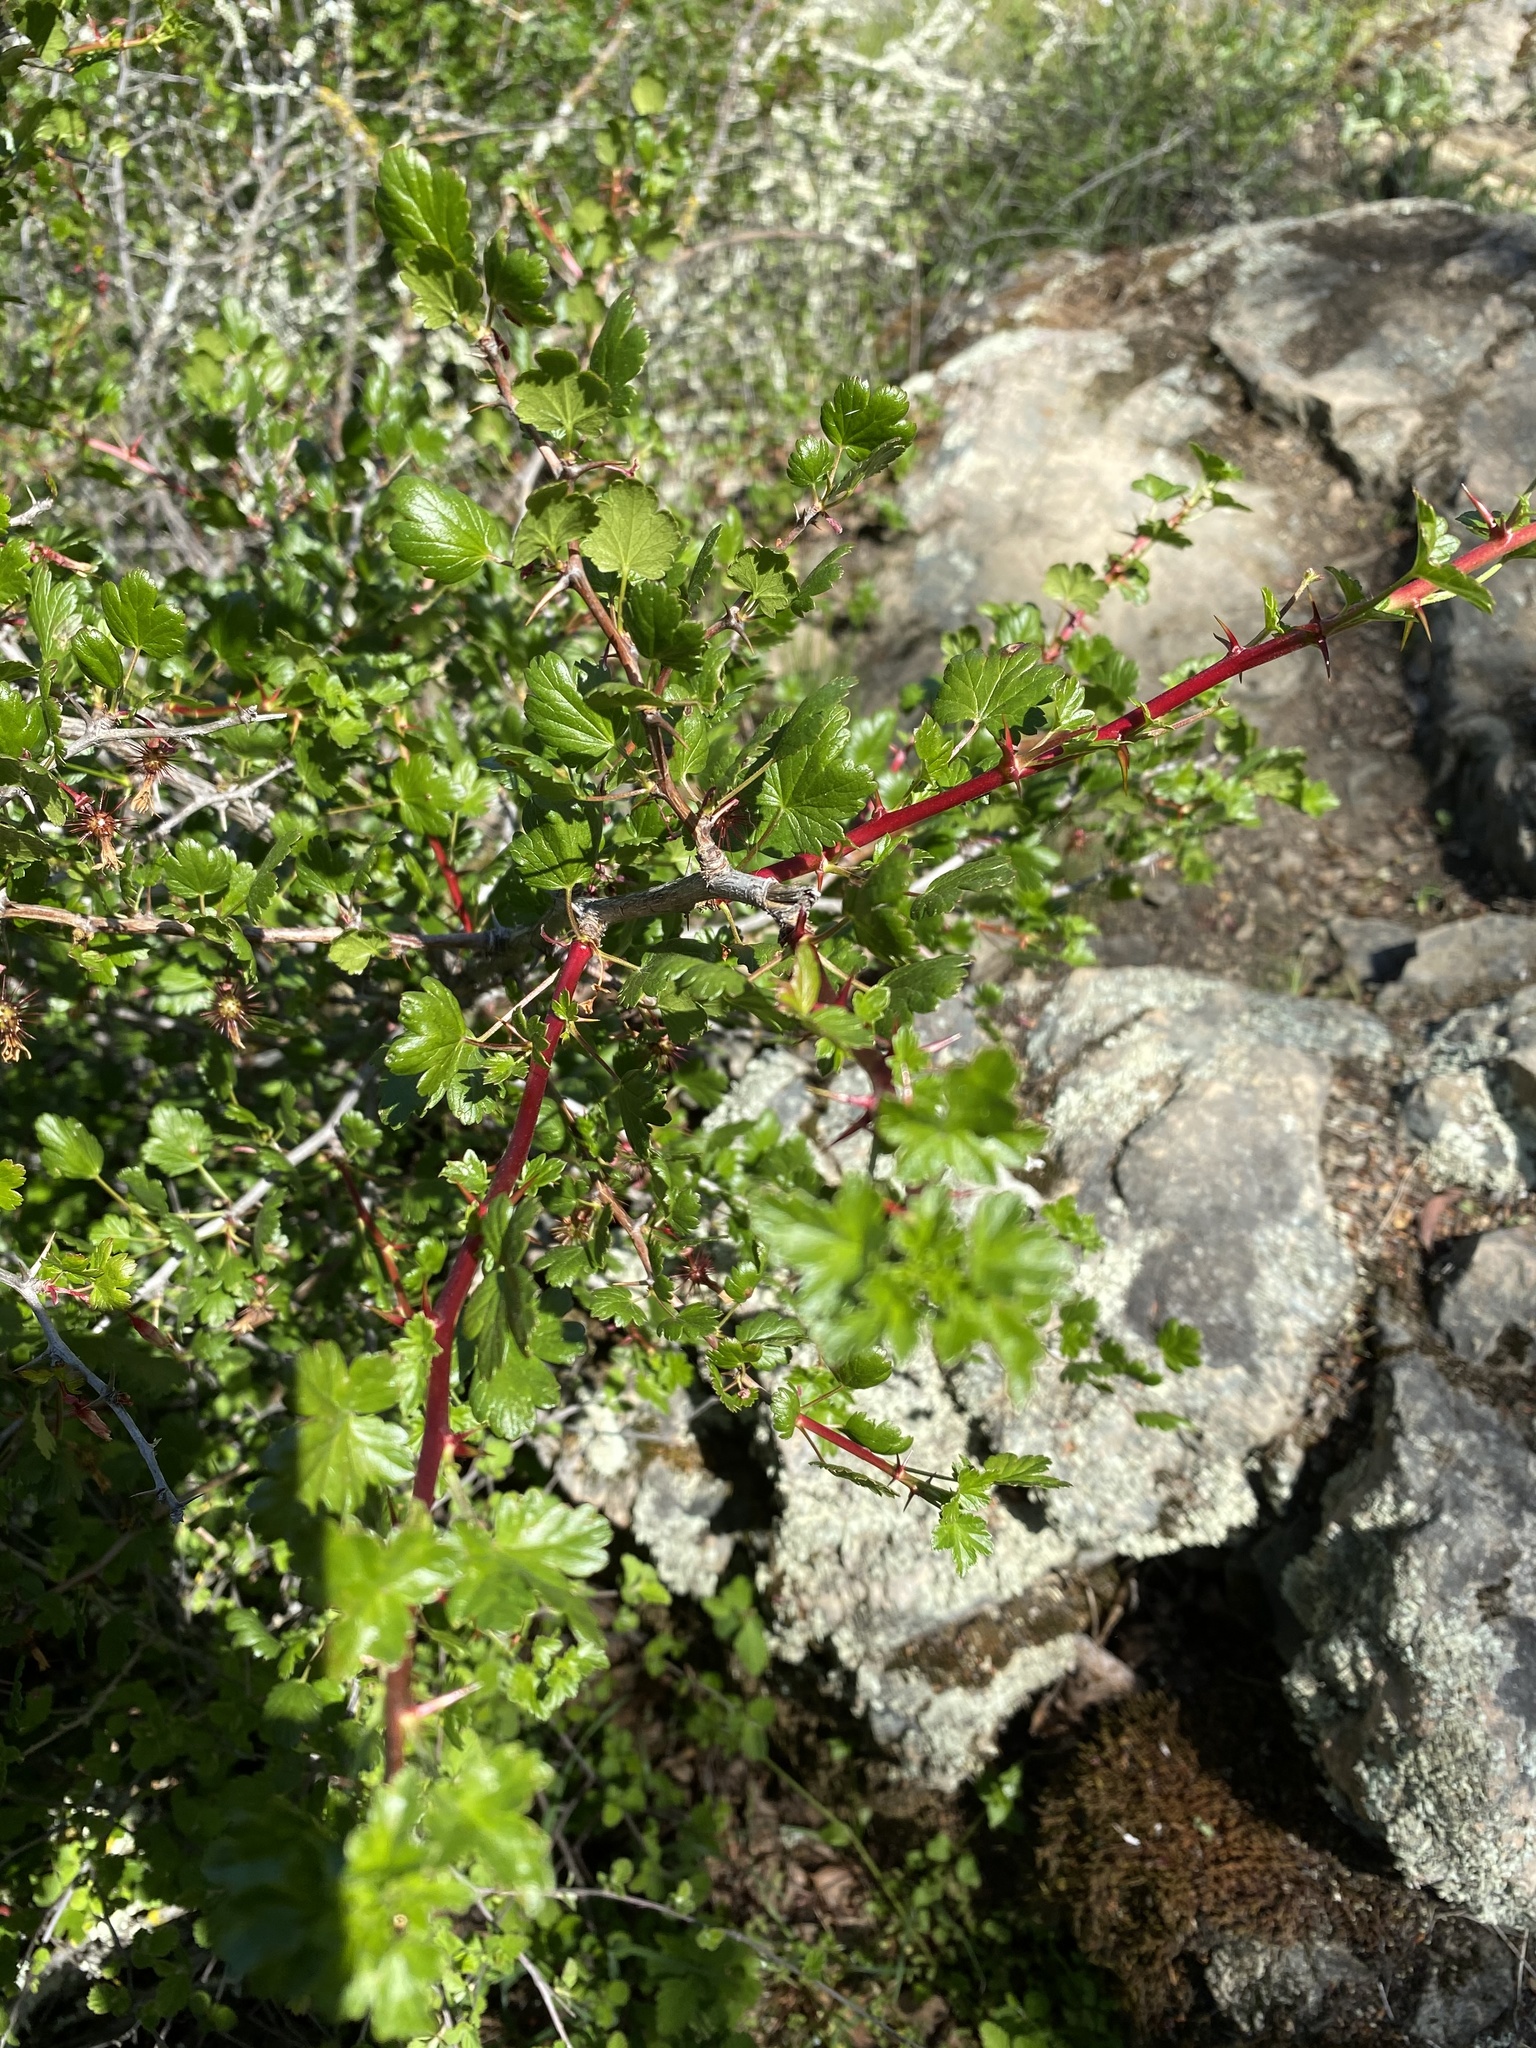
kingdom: Plantae
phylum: Tracheophyta
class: Magnoliopsida
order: Saxifragales
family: Grossulariaceae
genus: Ribes
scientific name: Ribes californicum
